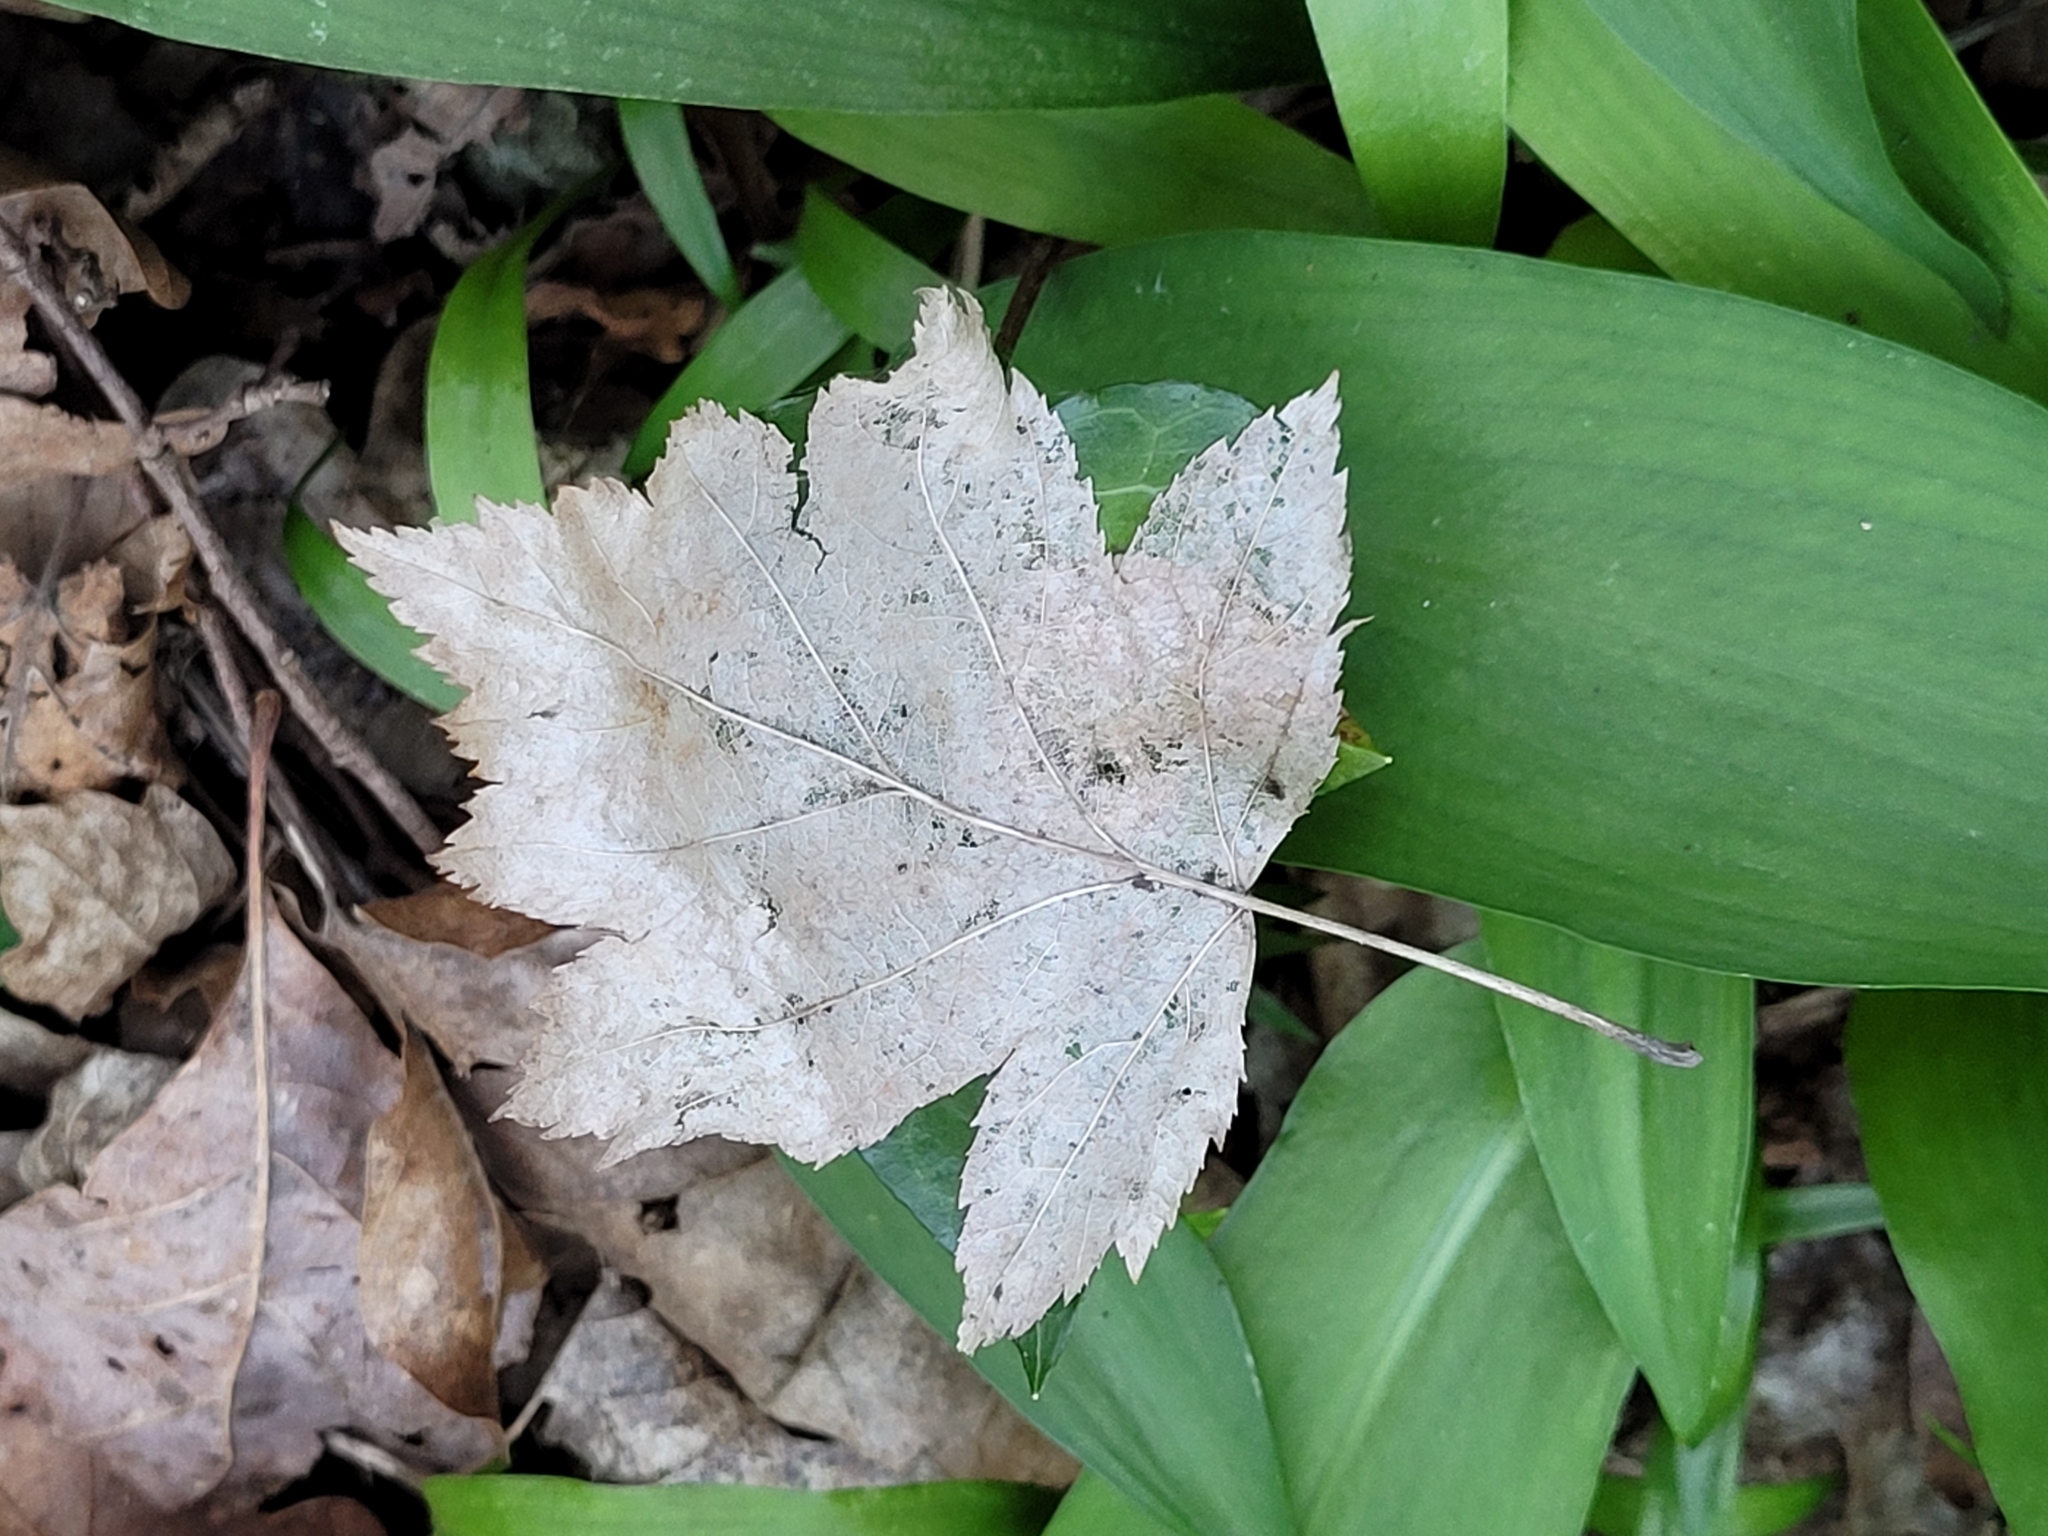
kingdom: Plantae
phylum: Tracheophyta
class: Magnoliopsida
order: Rosales
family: Rosaceae
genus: Torminalis
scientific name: Torminalis glaberrima
